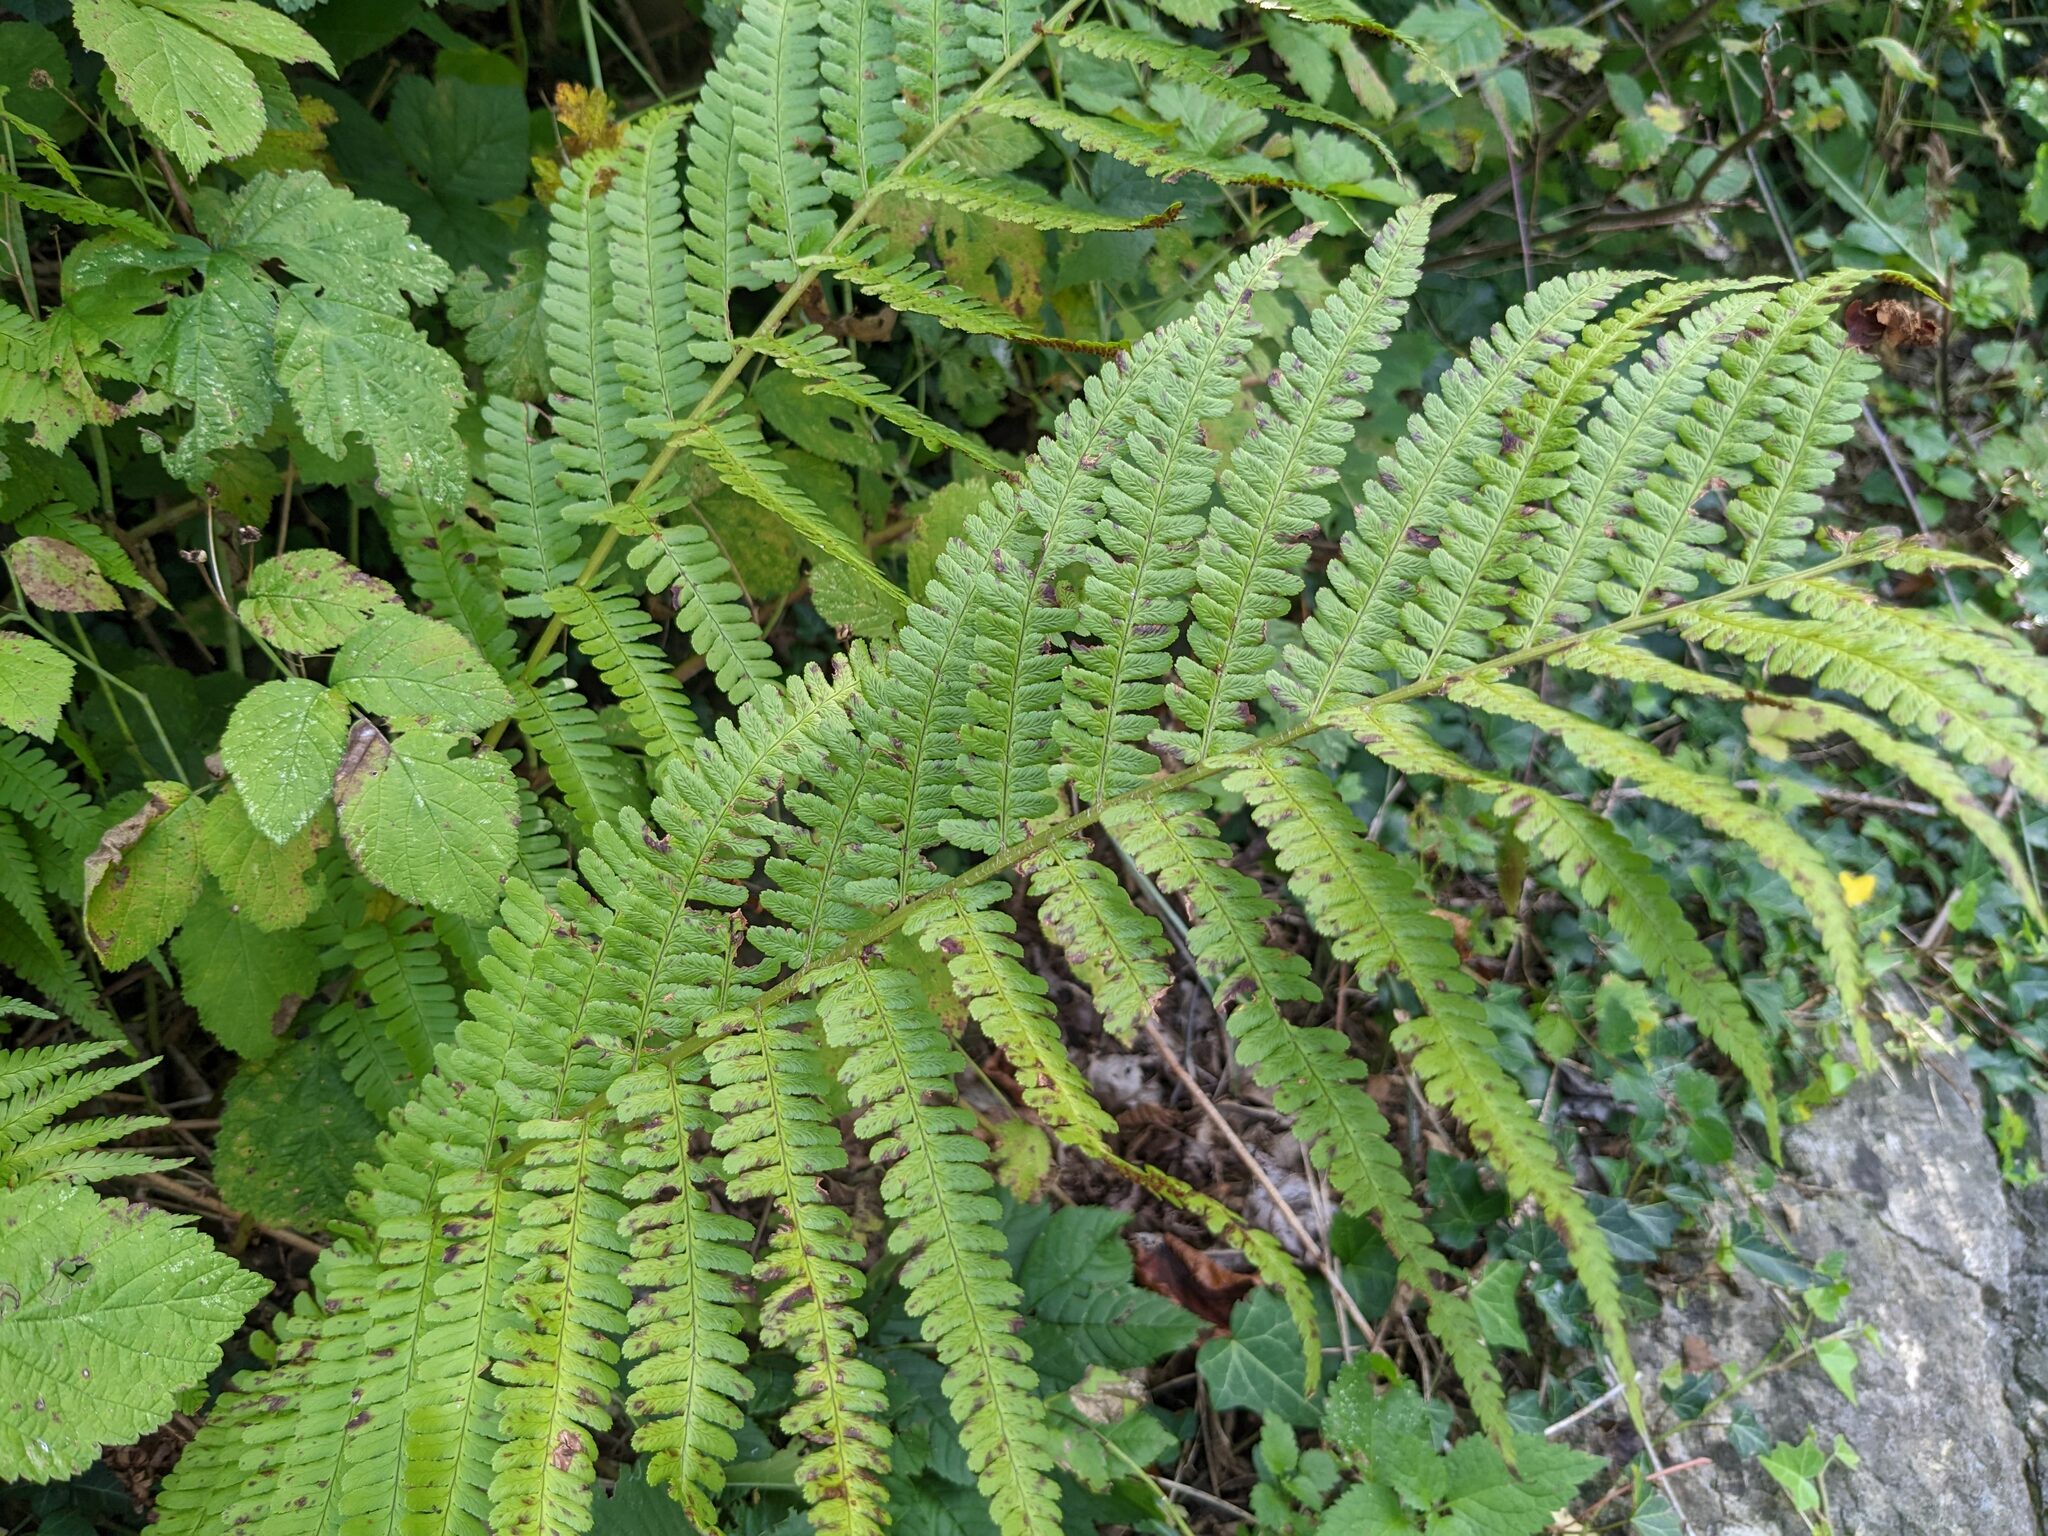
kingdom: Plantae
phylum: Tracheophyta
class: Polypodiopsida
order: Polypodiales
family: Dryopteridaceae
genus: Dryopteris
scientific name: Dryopteris filix-mas
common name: Male fern
